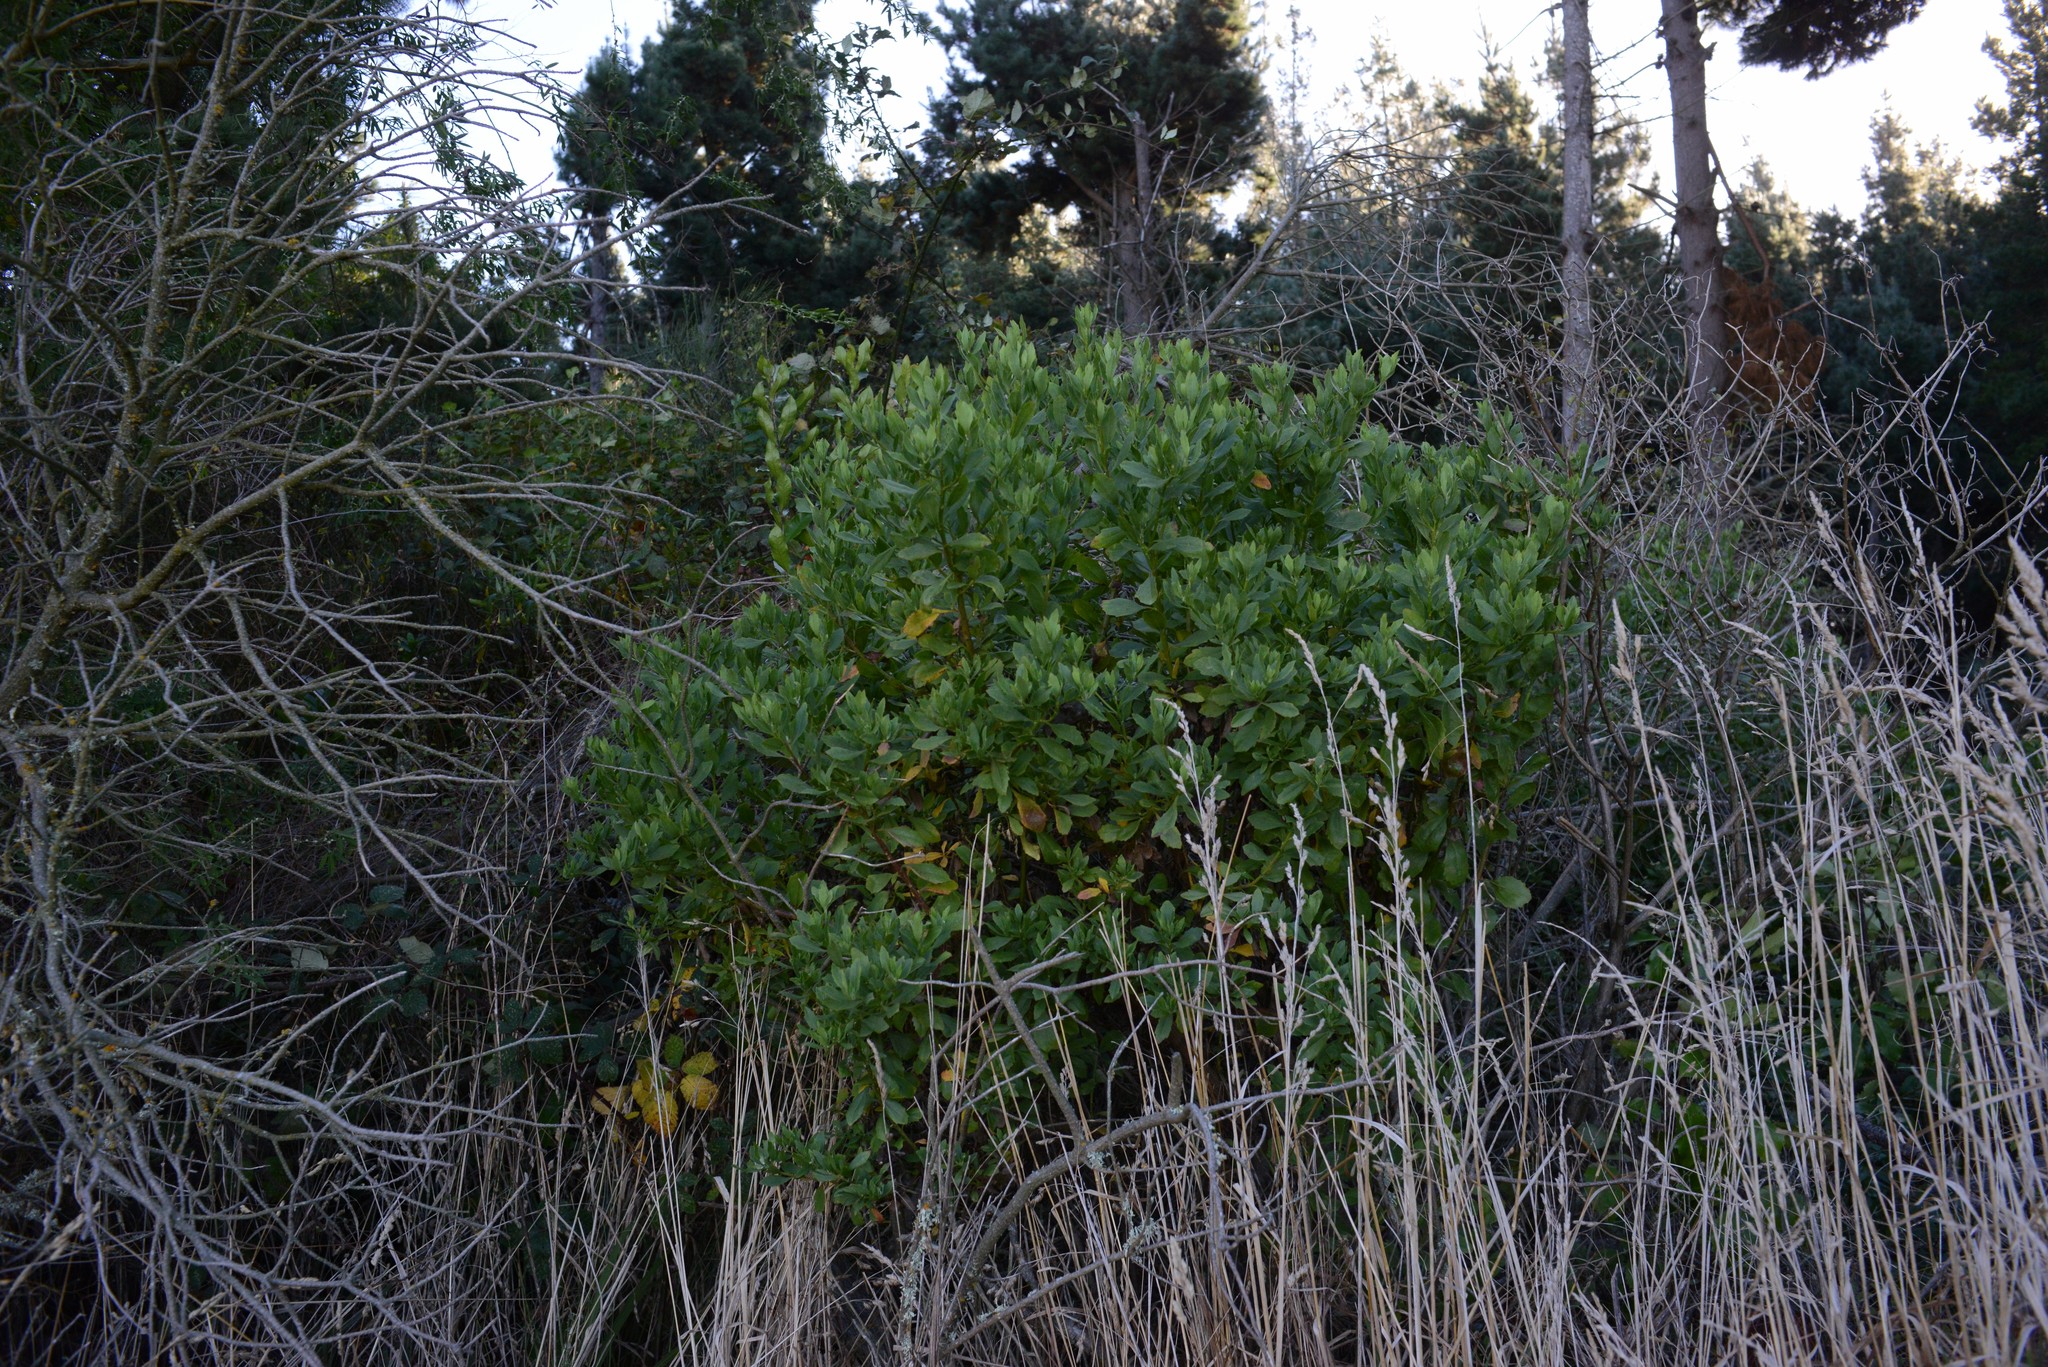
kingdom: Plantae
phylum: Tracheophyta
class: Magnoliopsida
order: Asterales
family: Asteraceae
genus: Osteospermum
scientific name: Osteospermum moniliferum
